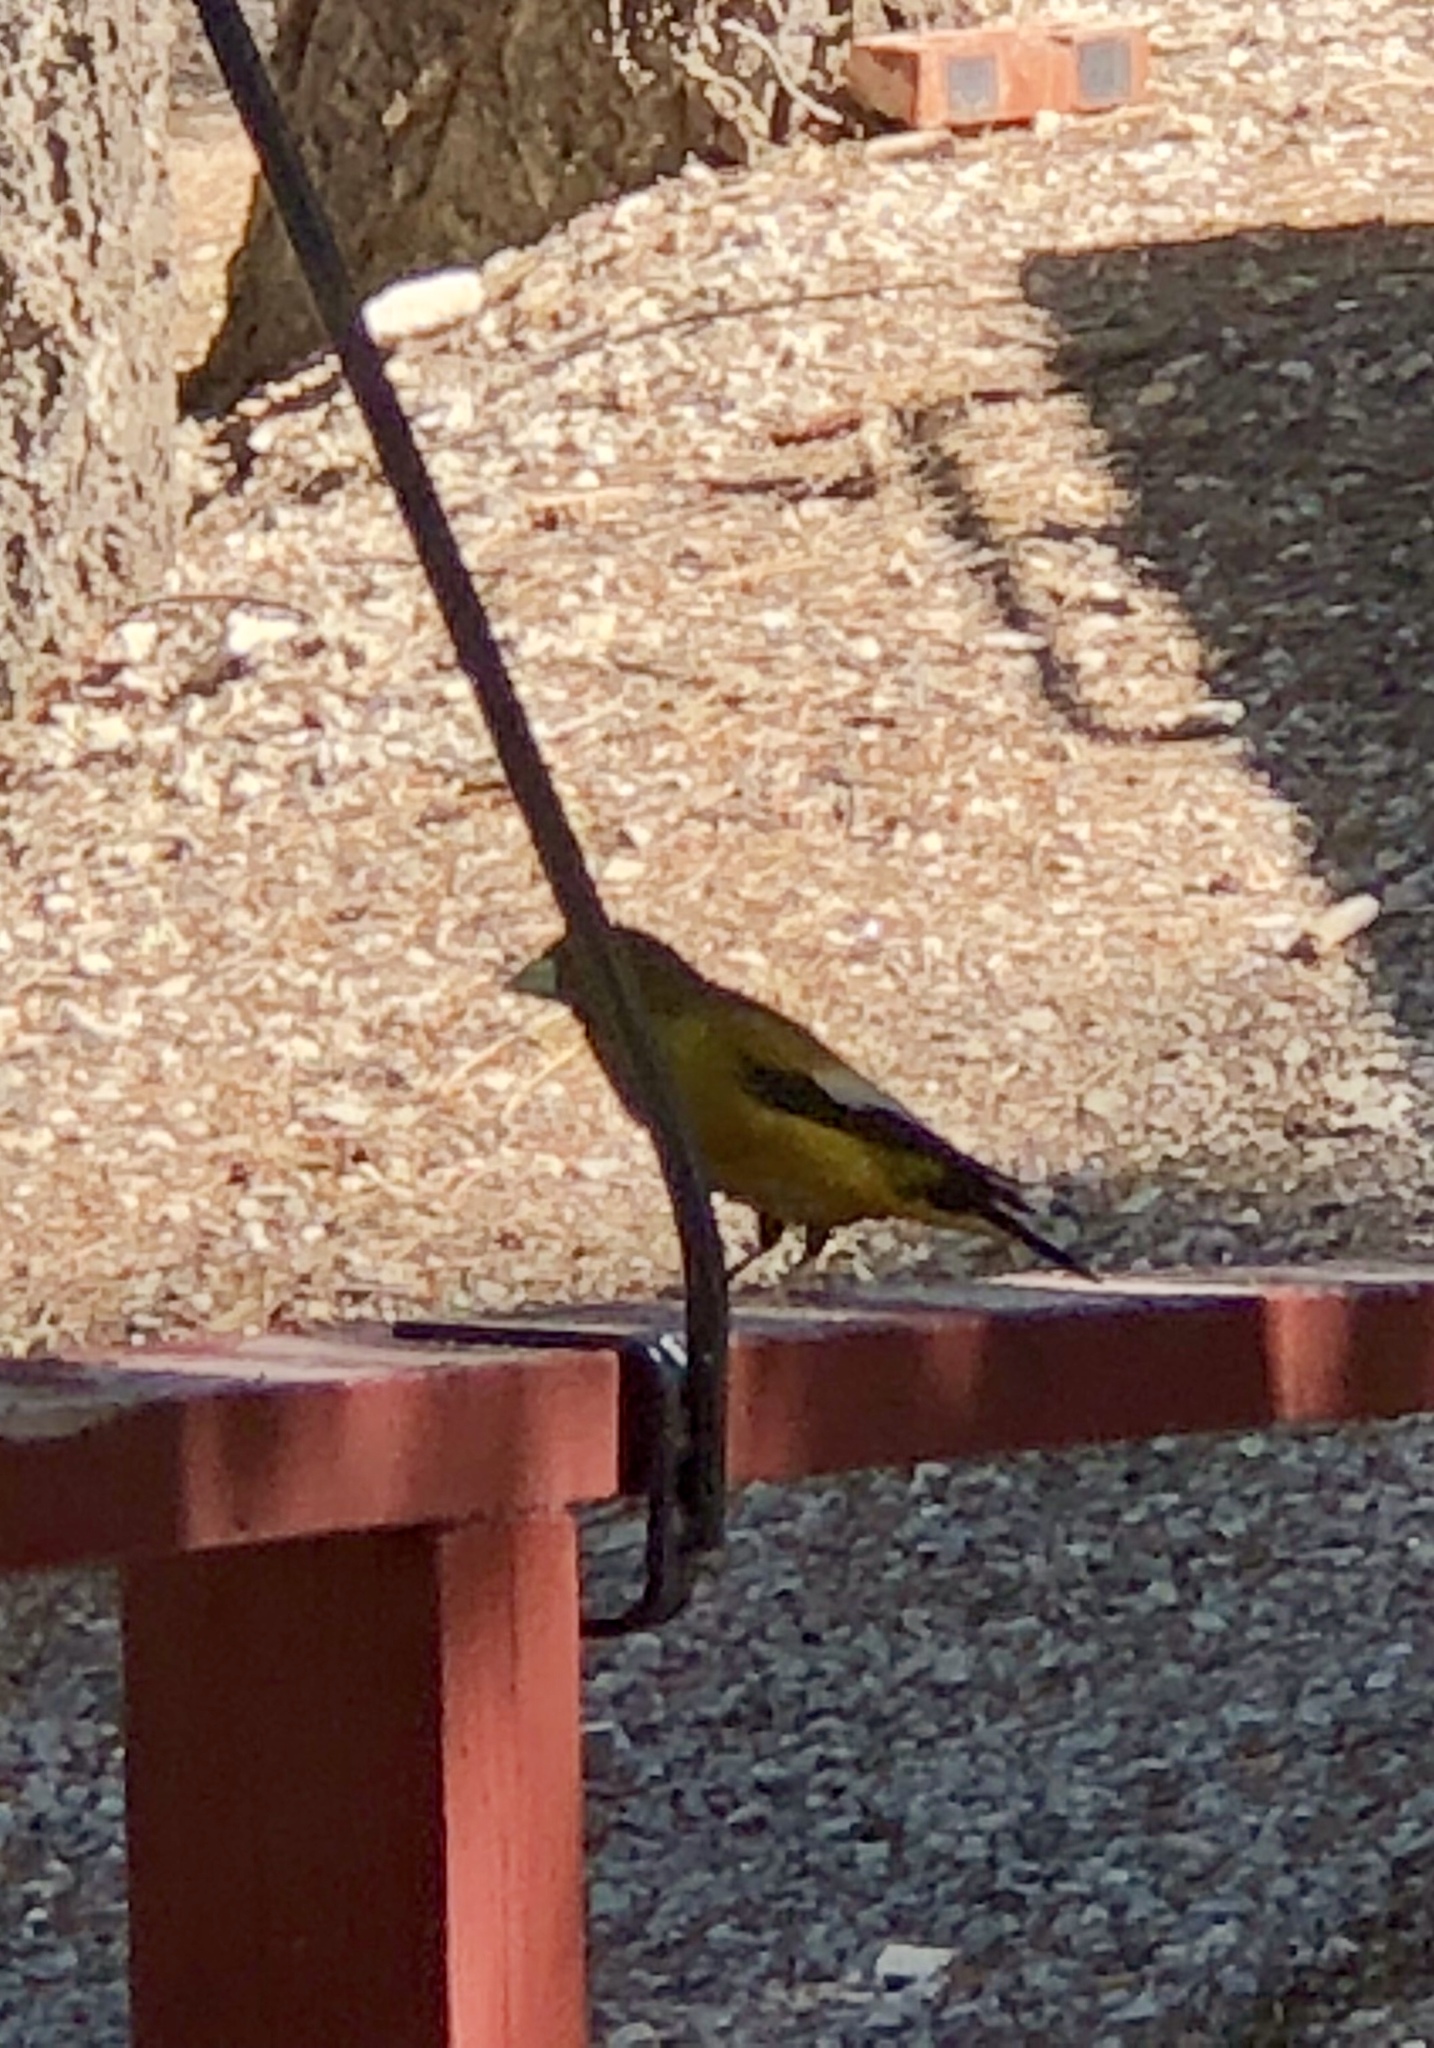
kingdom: Animalia
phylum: Chordata
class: Aves
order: Passeriformes
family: Fringillidae
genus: Hesperiphona
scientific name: Hesperiphona vespertina
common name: Evening grosbeak
